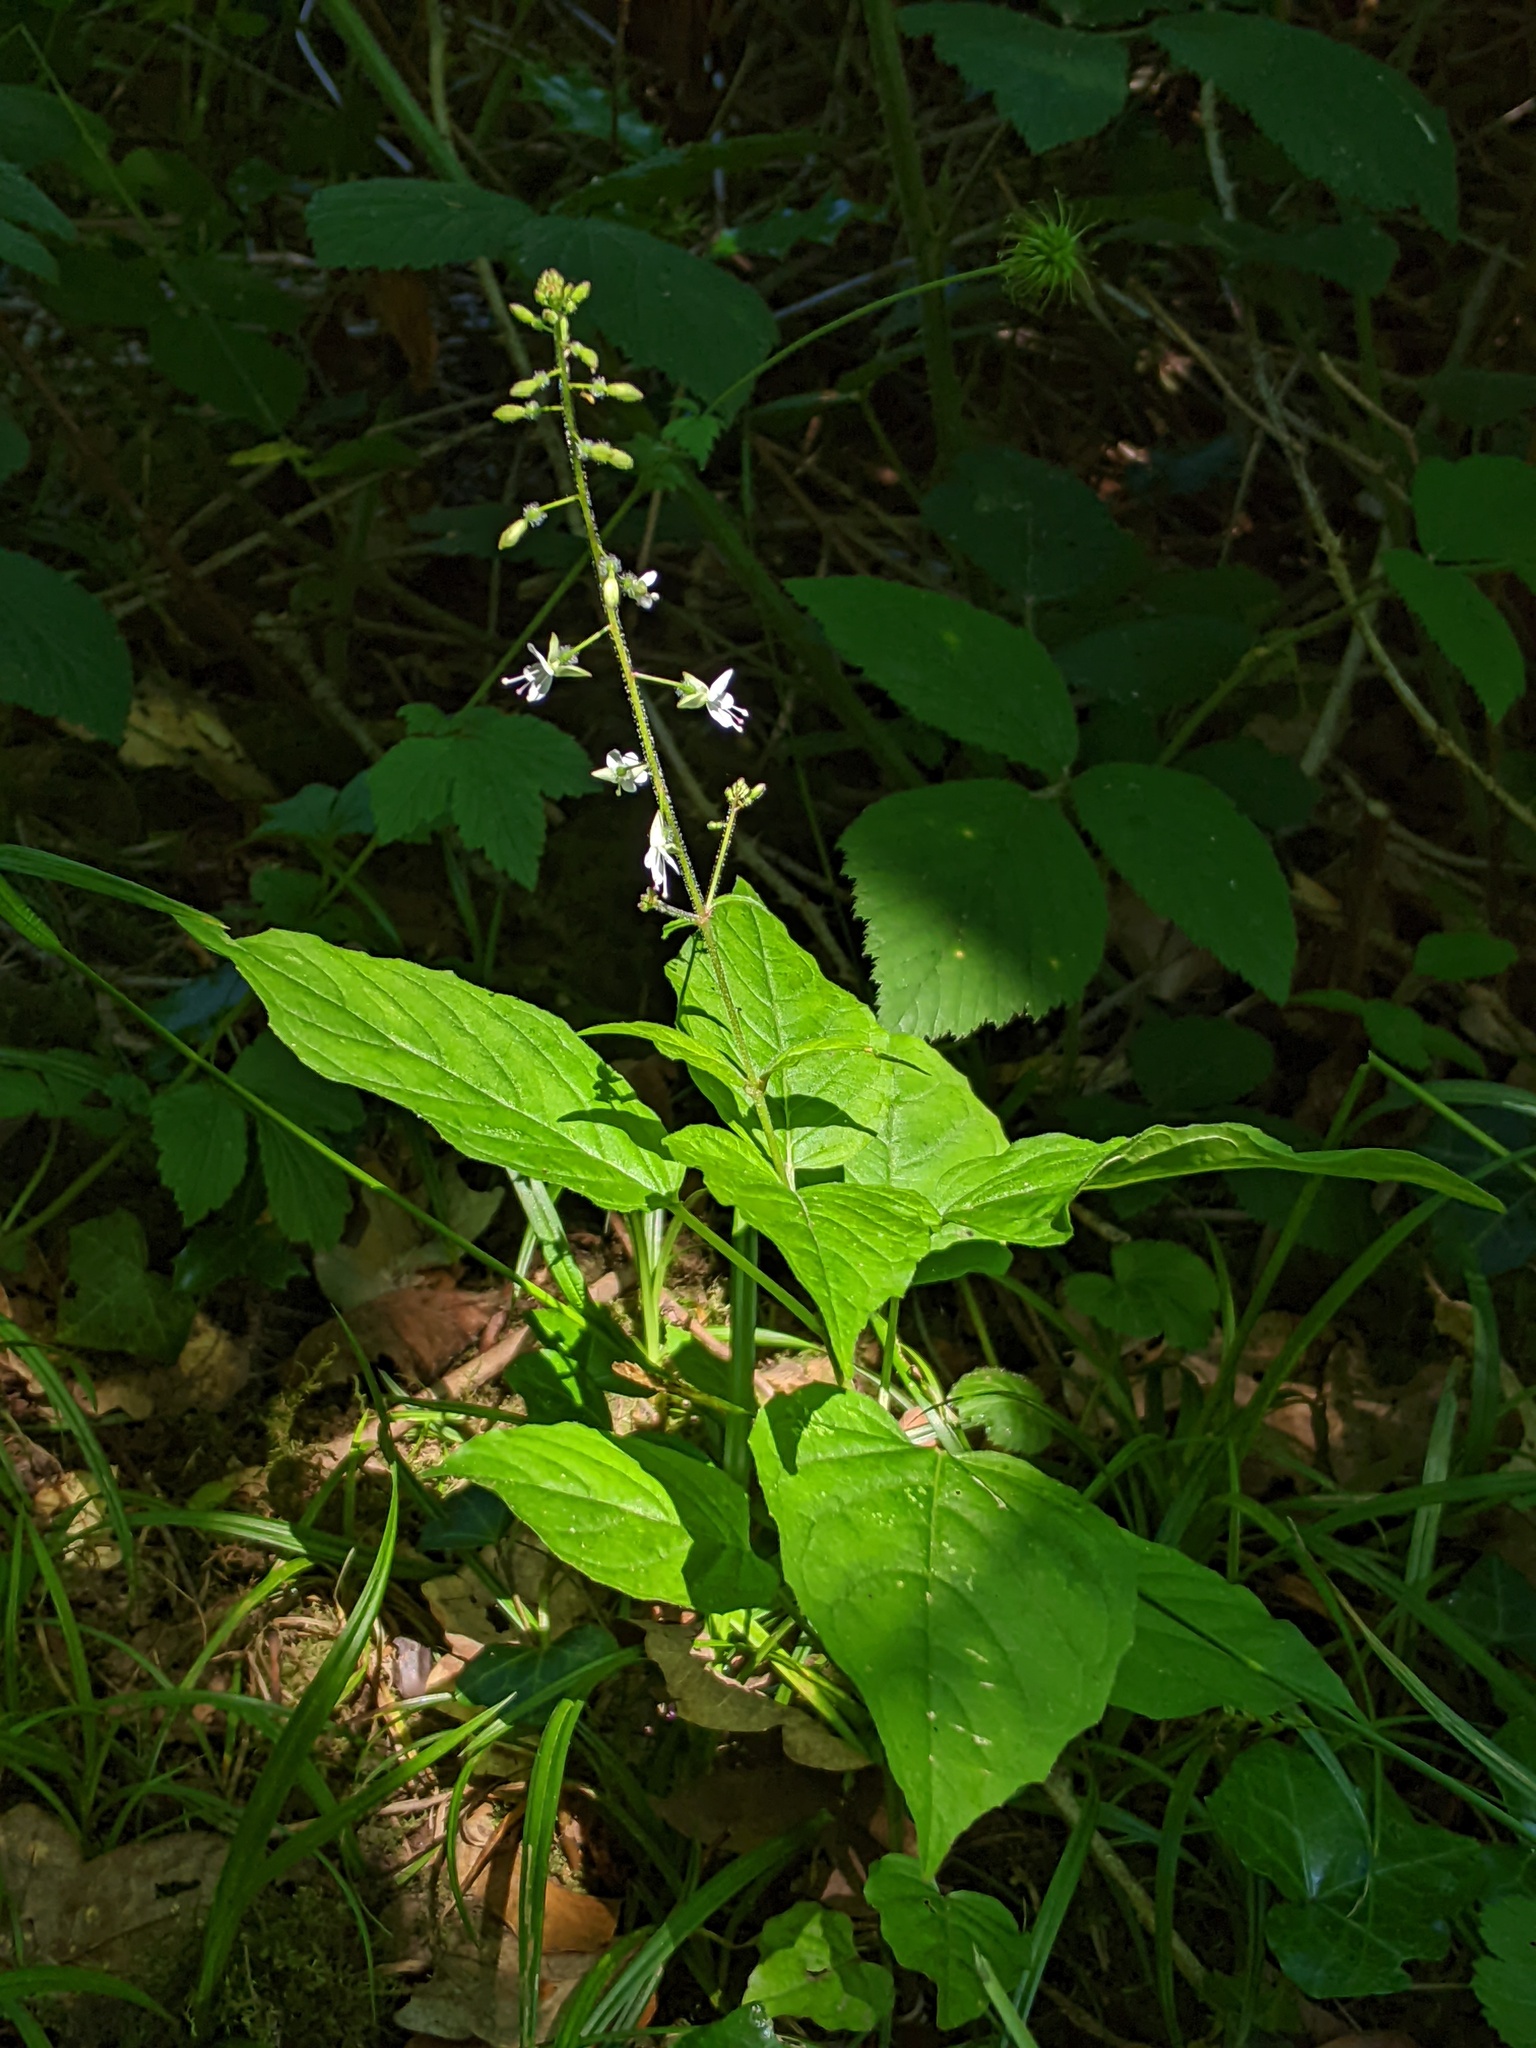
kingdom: Plantae
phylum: Tracheophyta
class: Magnoliopsida
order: Myrtales
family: Onagraceae
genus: Circaea
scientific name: Circaea lutetiana
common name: Enchanter's-nightshade
